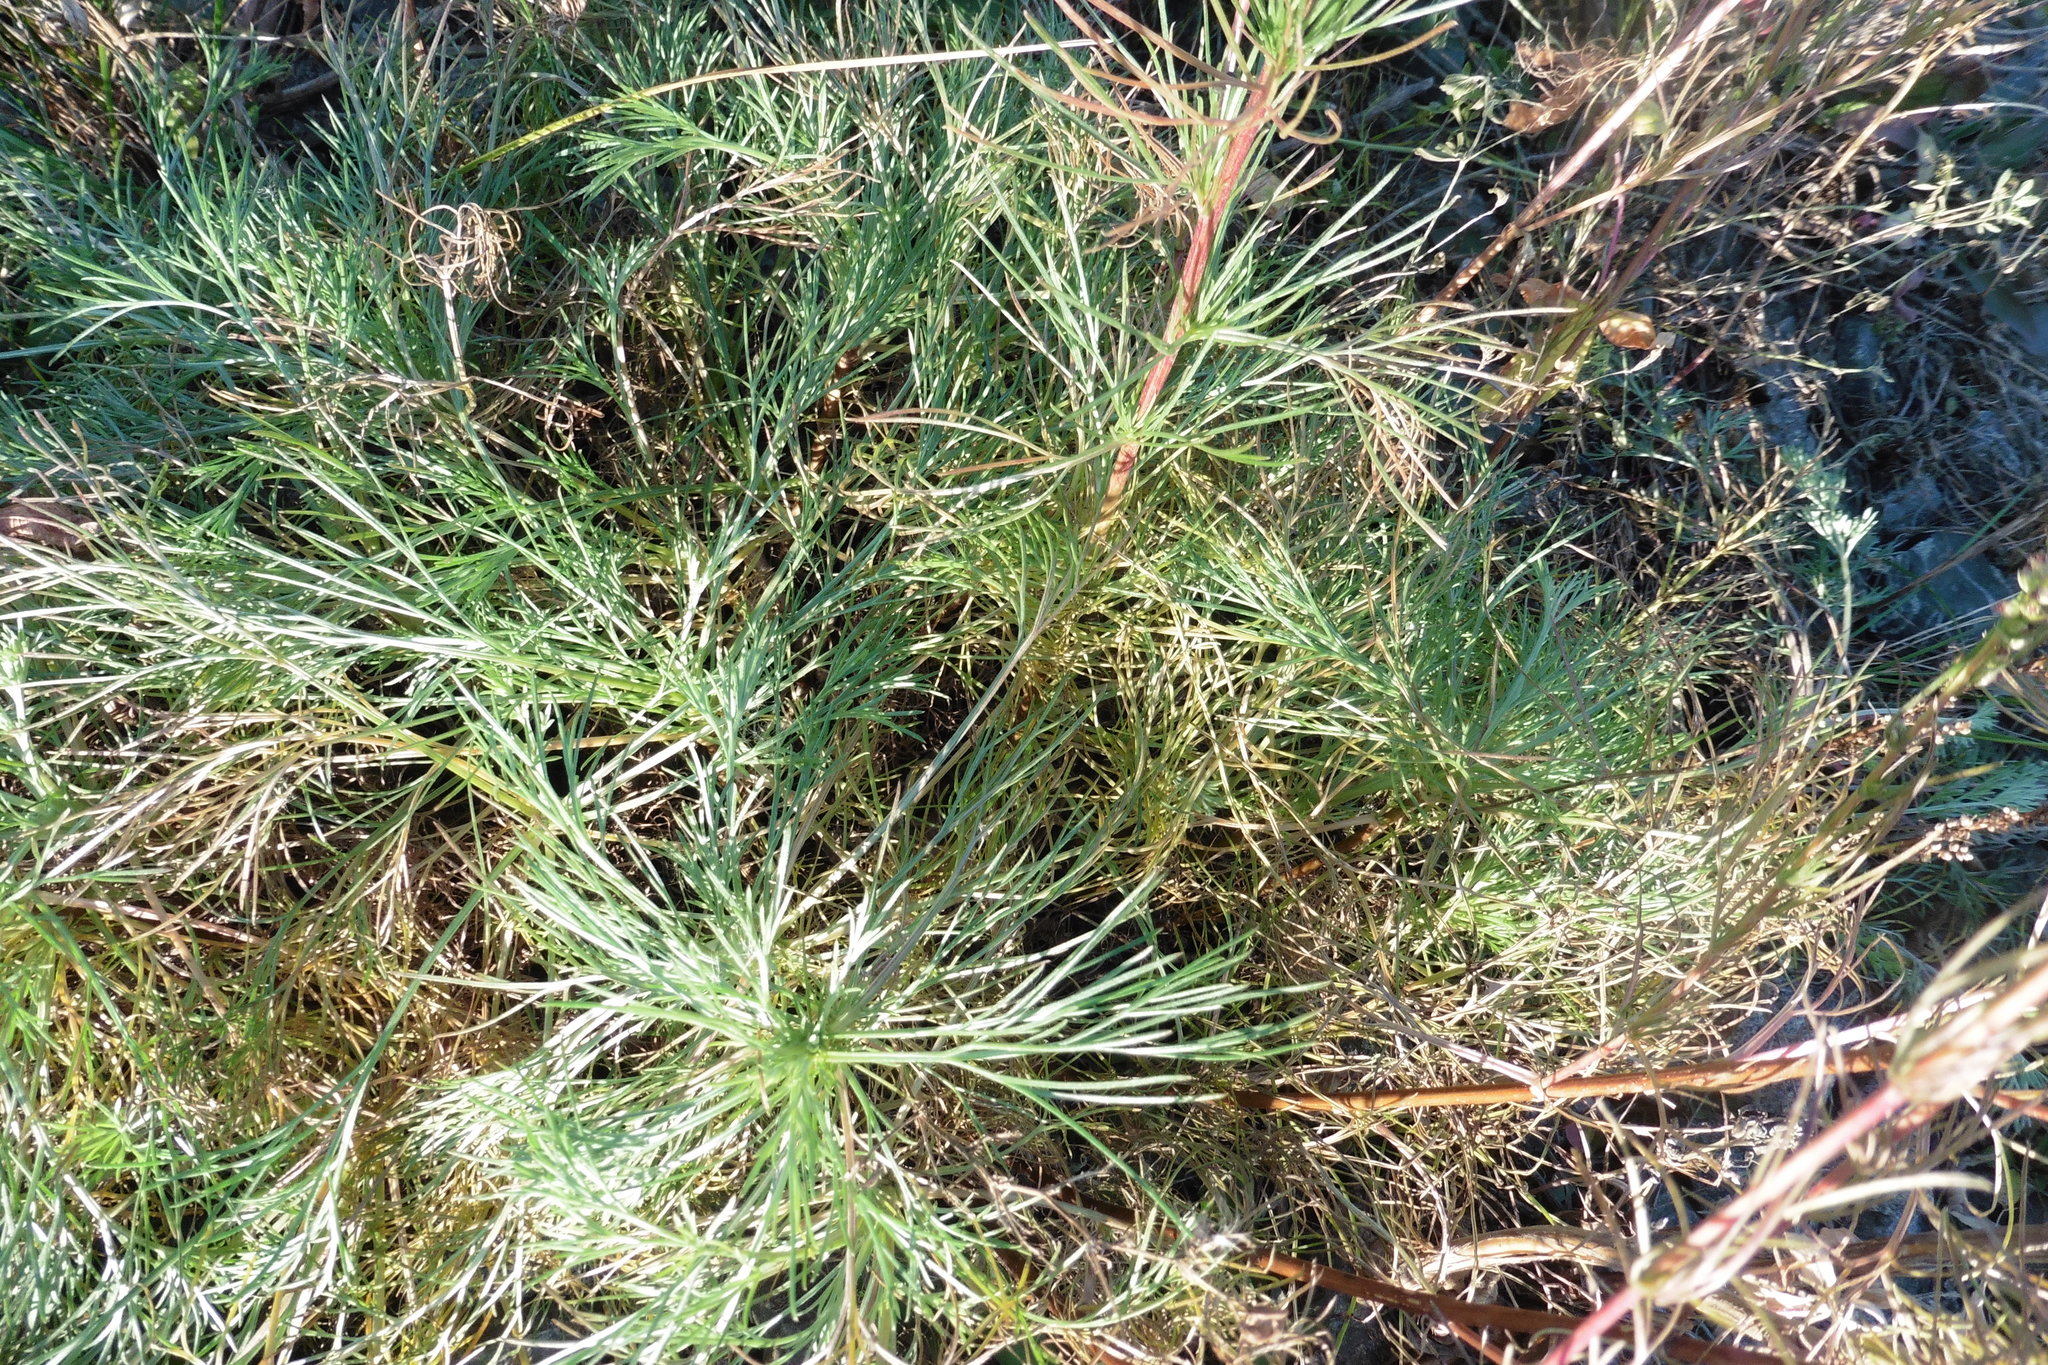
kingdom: Plantae
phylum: Tracheophyta
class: Magnoliopsida
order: Asterales
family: Asteraceae
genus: Artemisia
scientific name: Artemisia campestris
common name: Field wormwood
